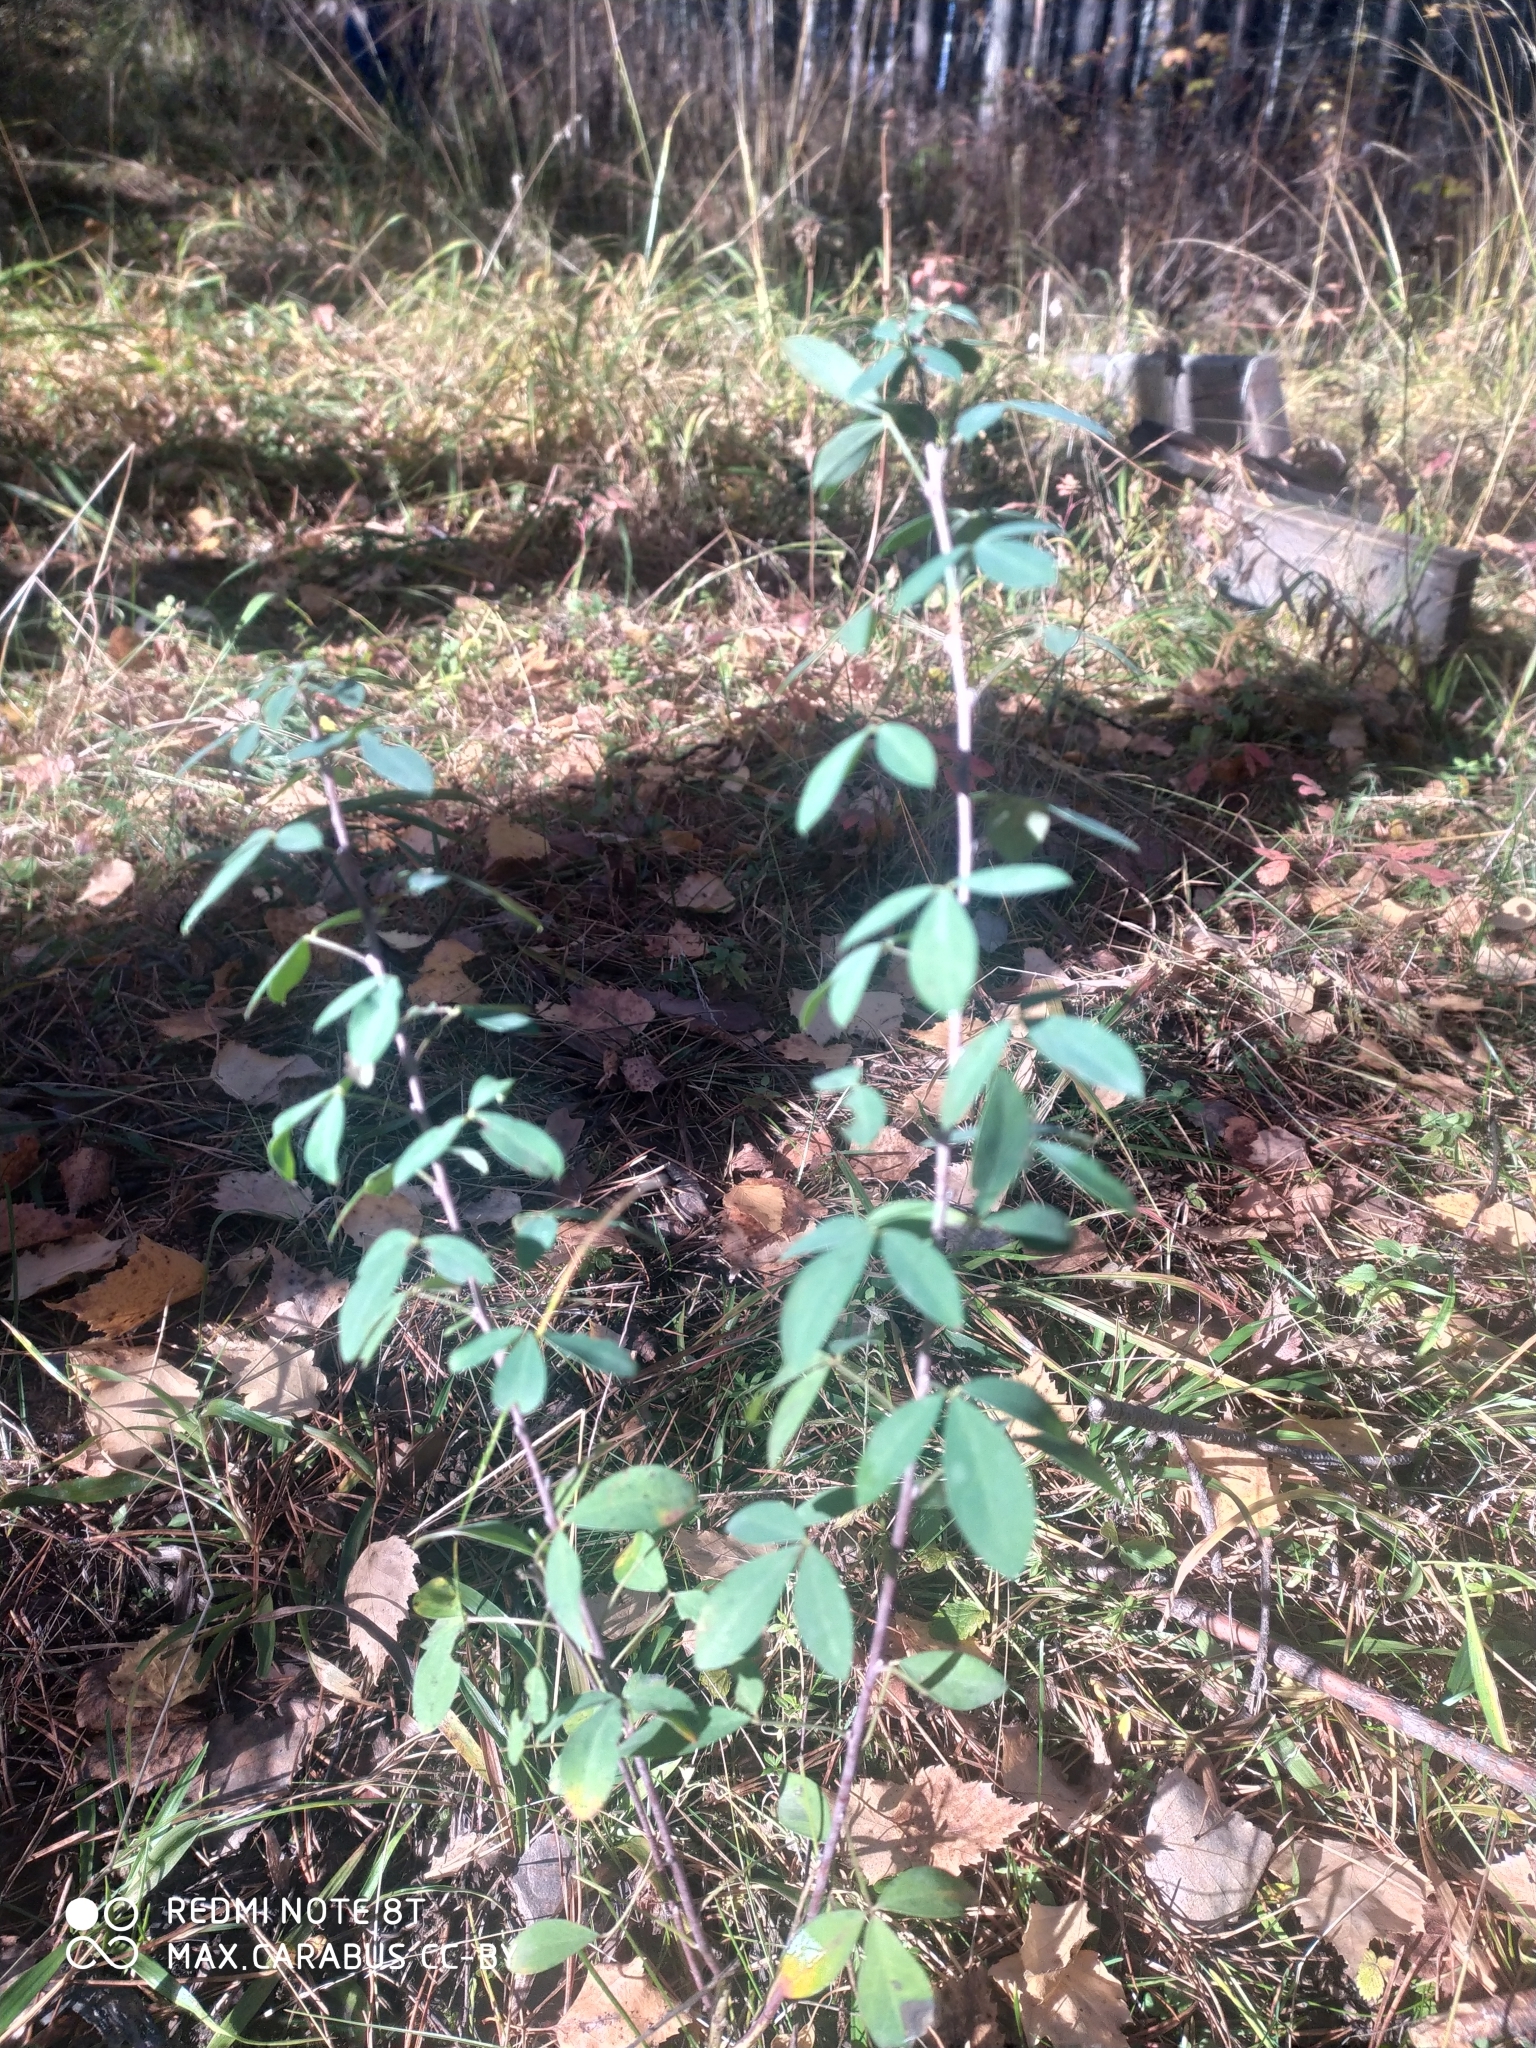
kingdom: Plantae
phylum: Tracheophyta
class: Magnoliopsida
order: Fabales
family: Fabaceae
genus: Chamaecytisus
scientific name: Chamaecytisus ruthenicus
